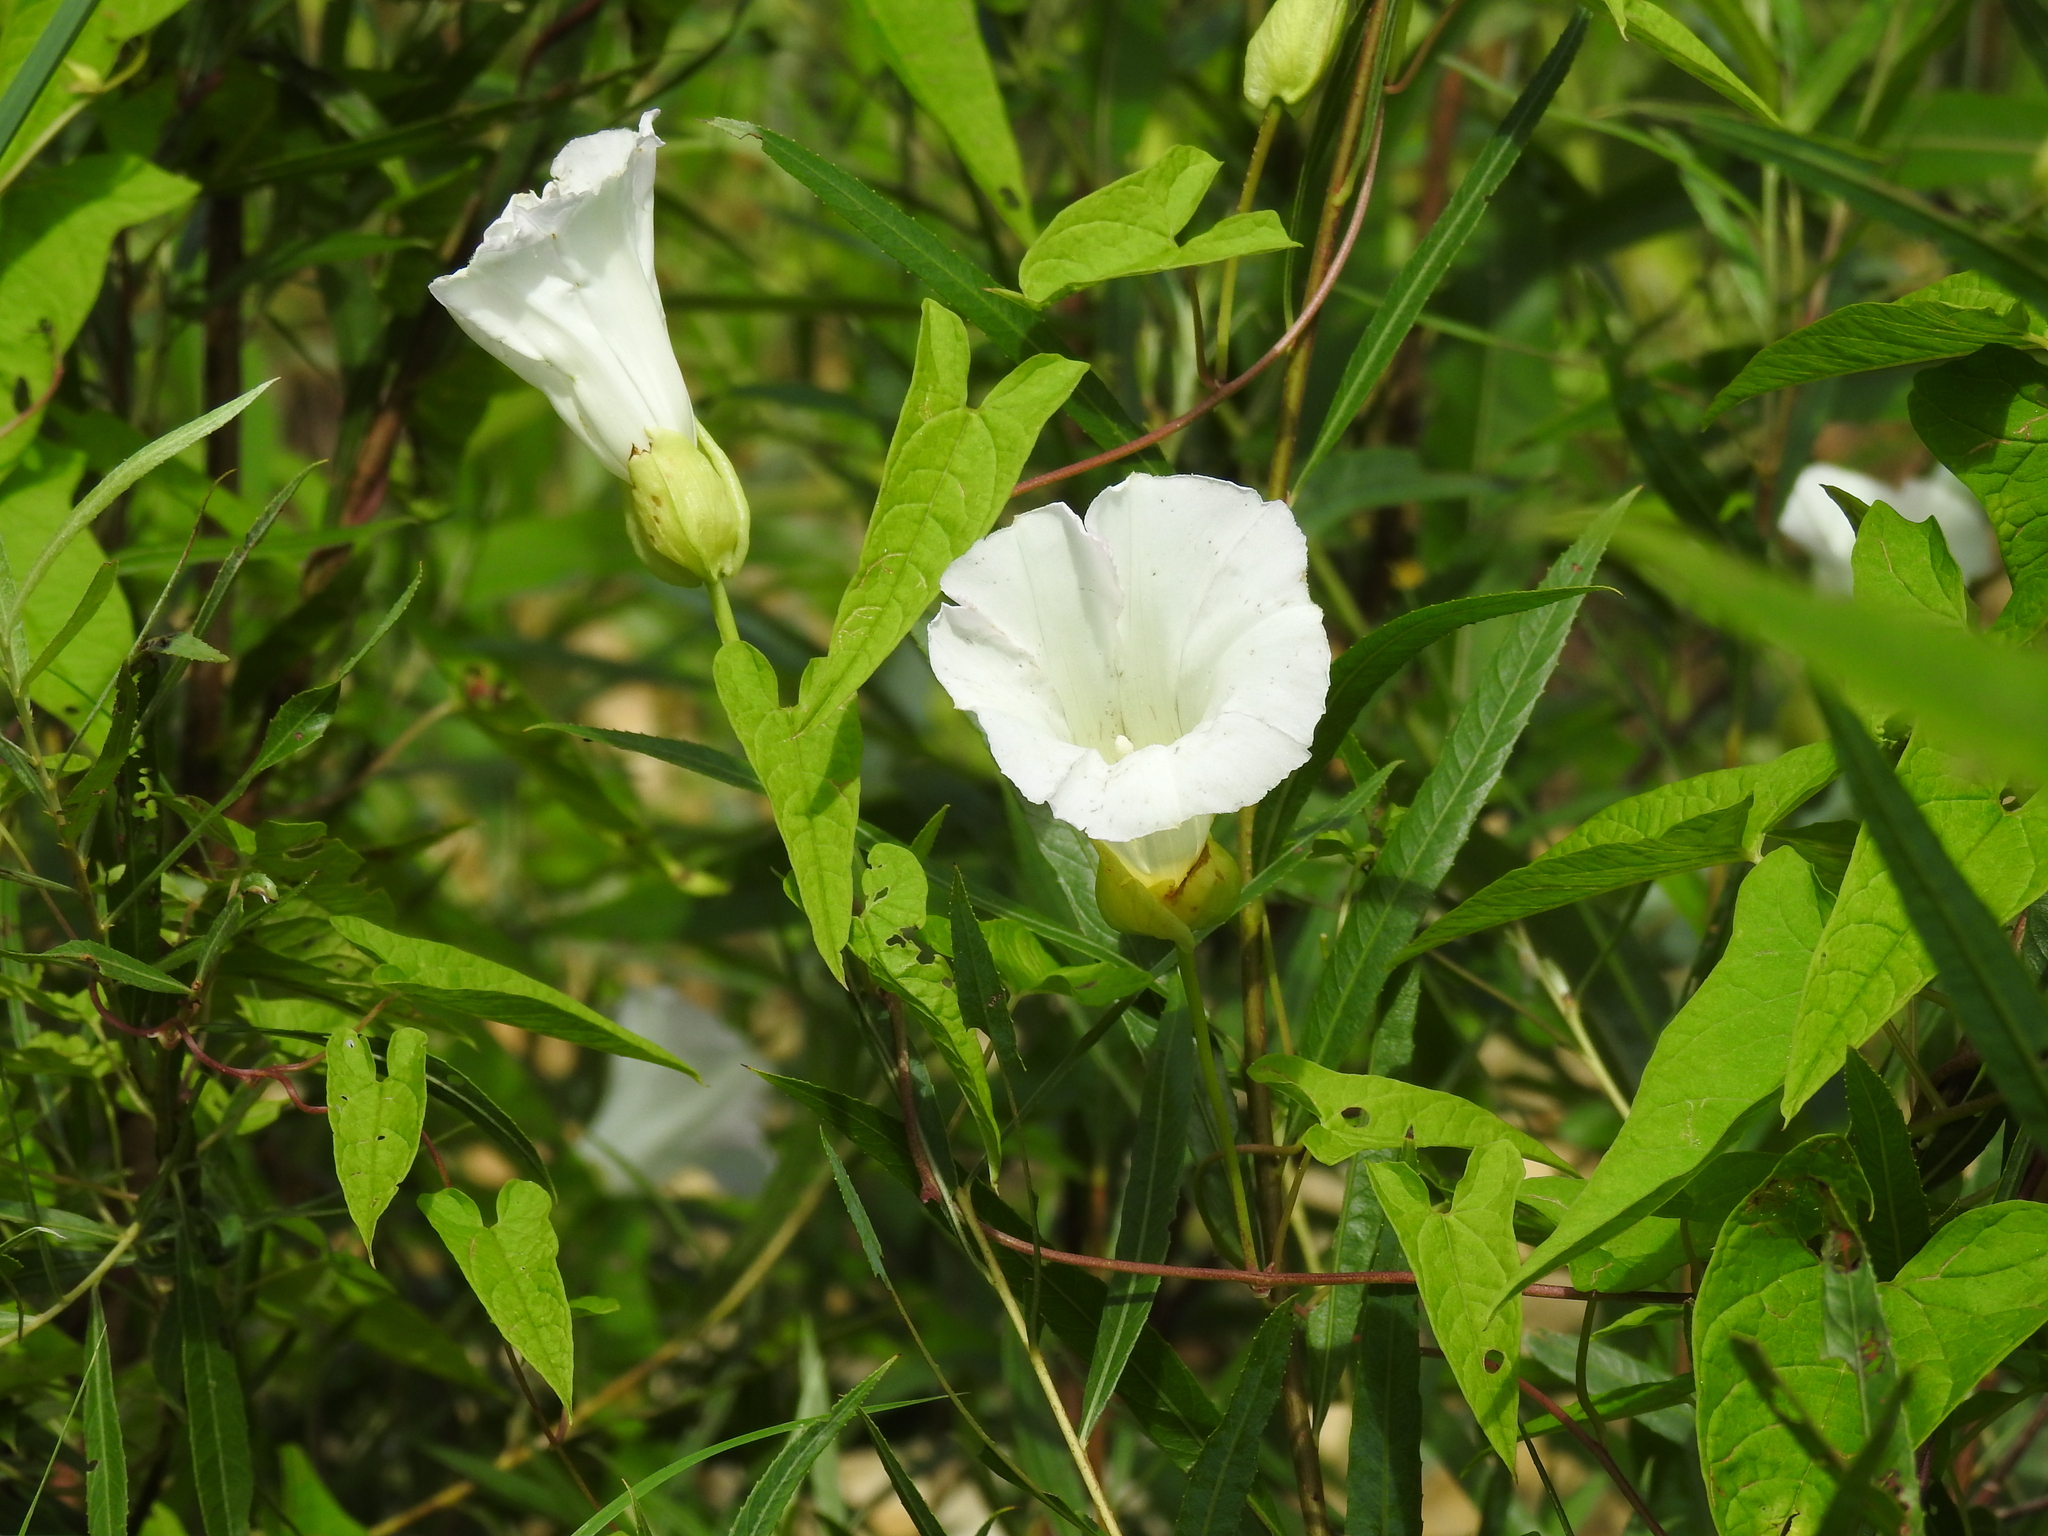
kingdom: Plantae
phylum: Tracheophyta
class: Magnoliopsida
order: Solanales
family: Convolvulaceae
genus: Calystegia
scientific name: Calystegia sepium
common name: Hedge bindweed
